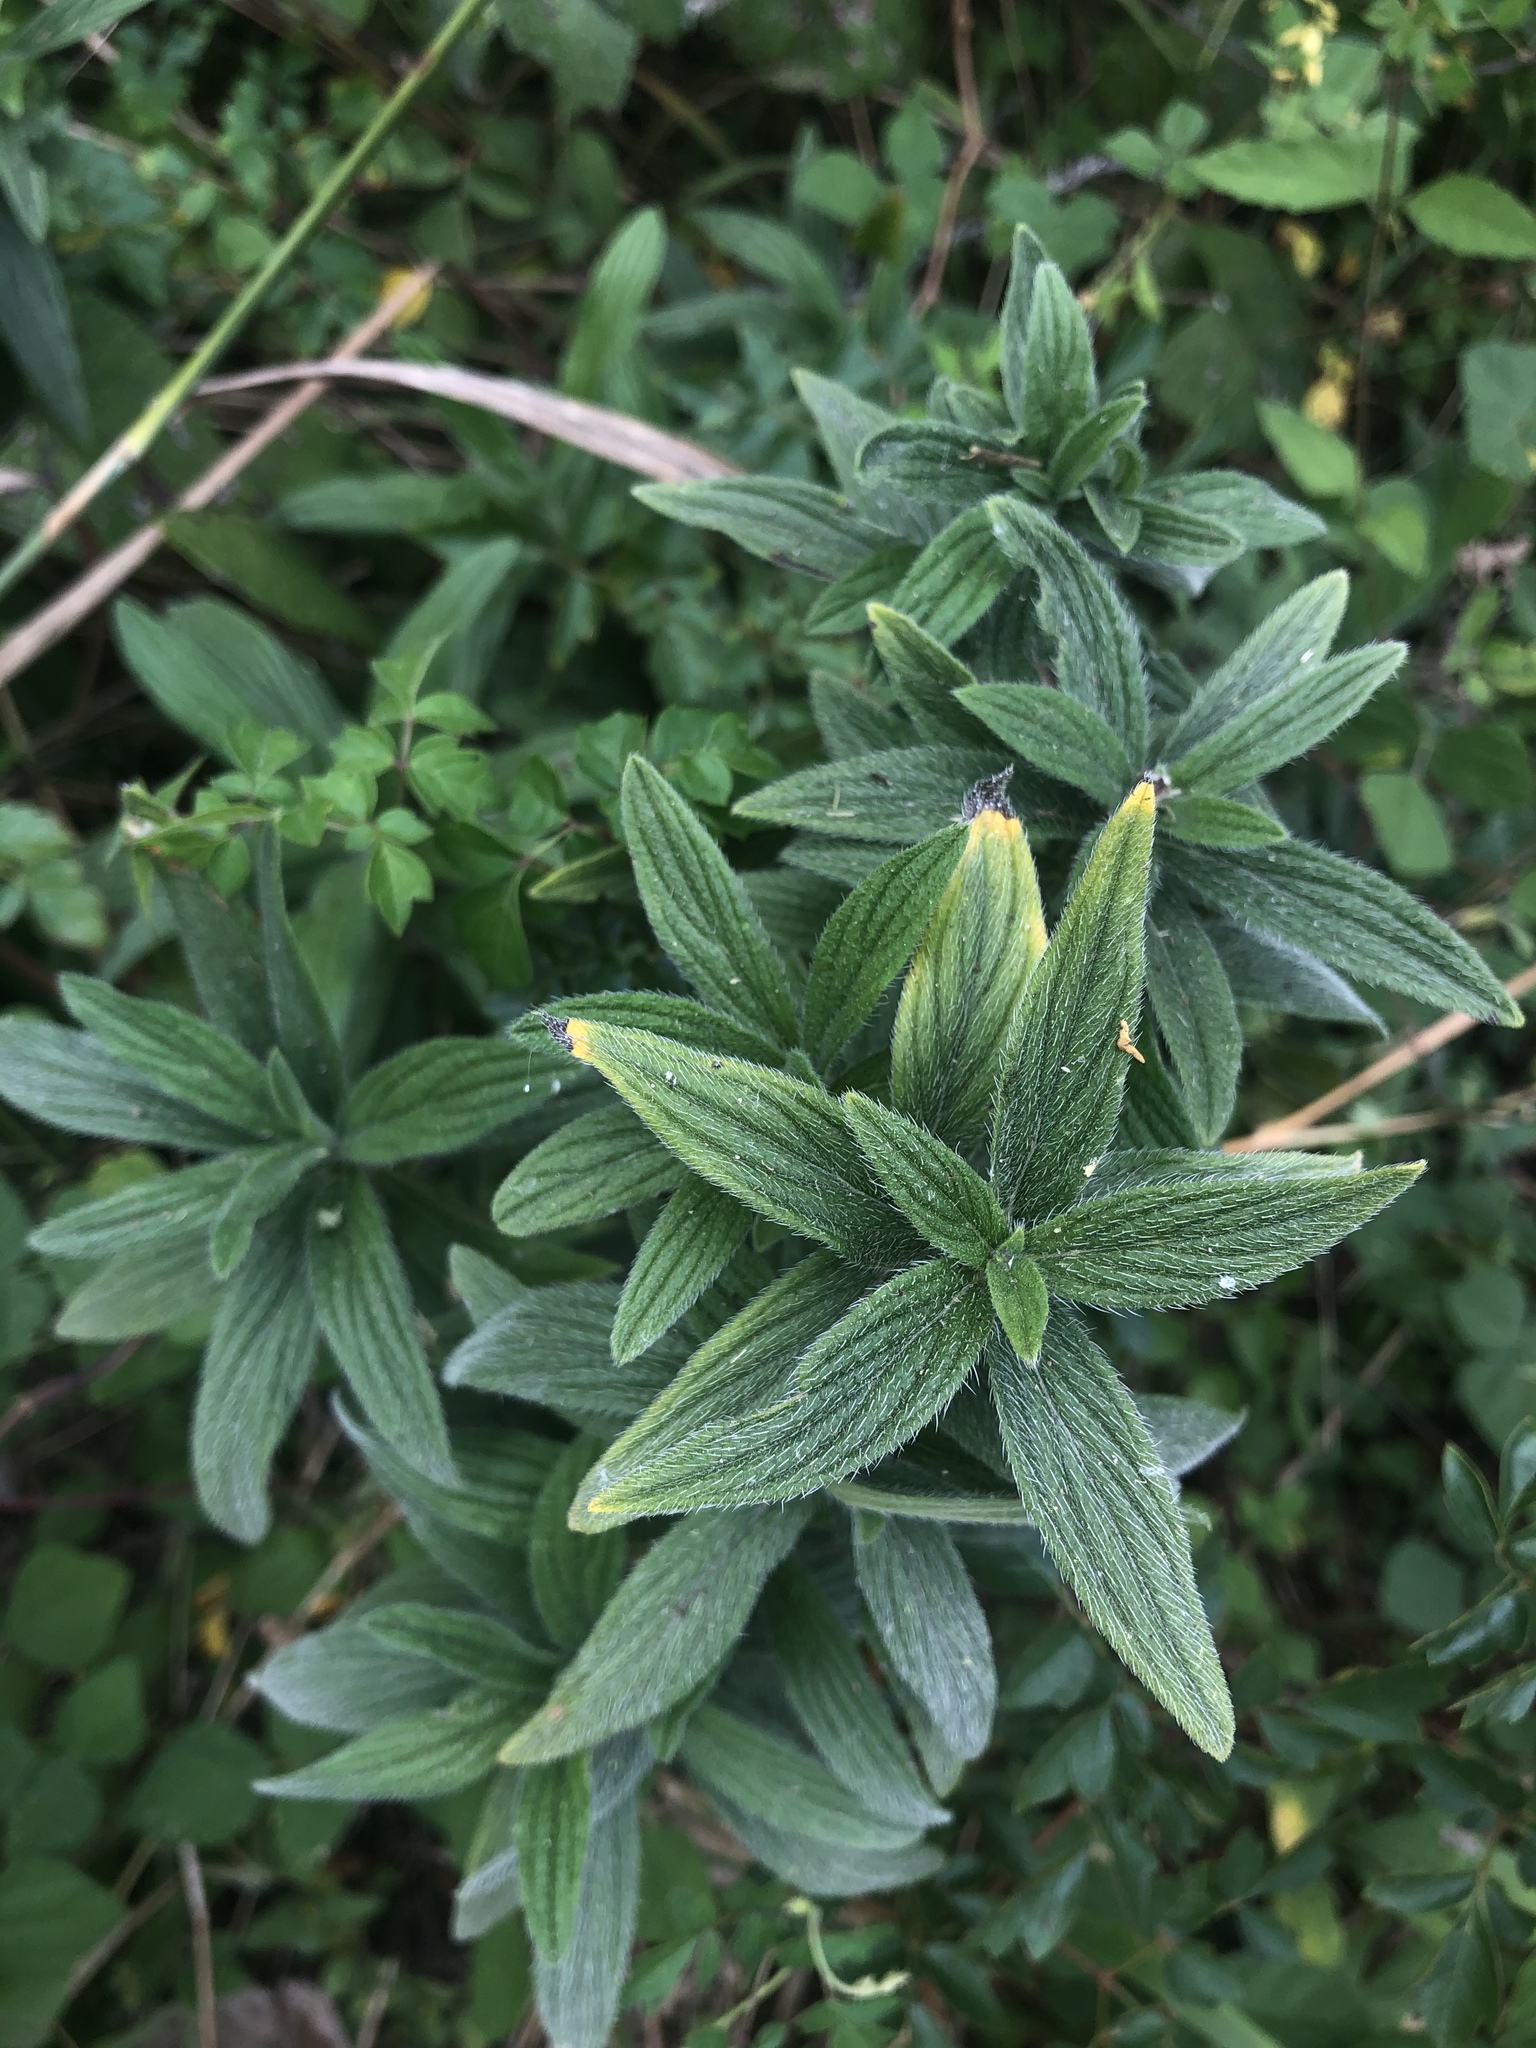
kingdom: Plantae
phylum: Tracheophyta
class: Magnoliopsida
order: Boraginales
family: Boraginaceae
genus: Lithospermum
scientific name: Lithospermum caroliniense
